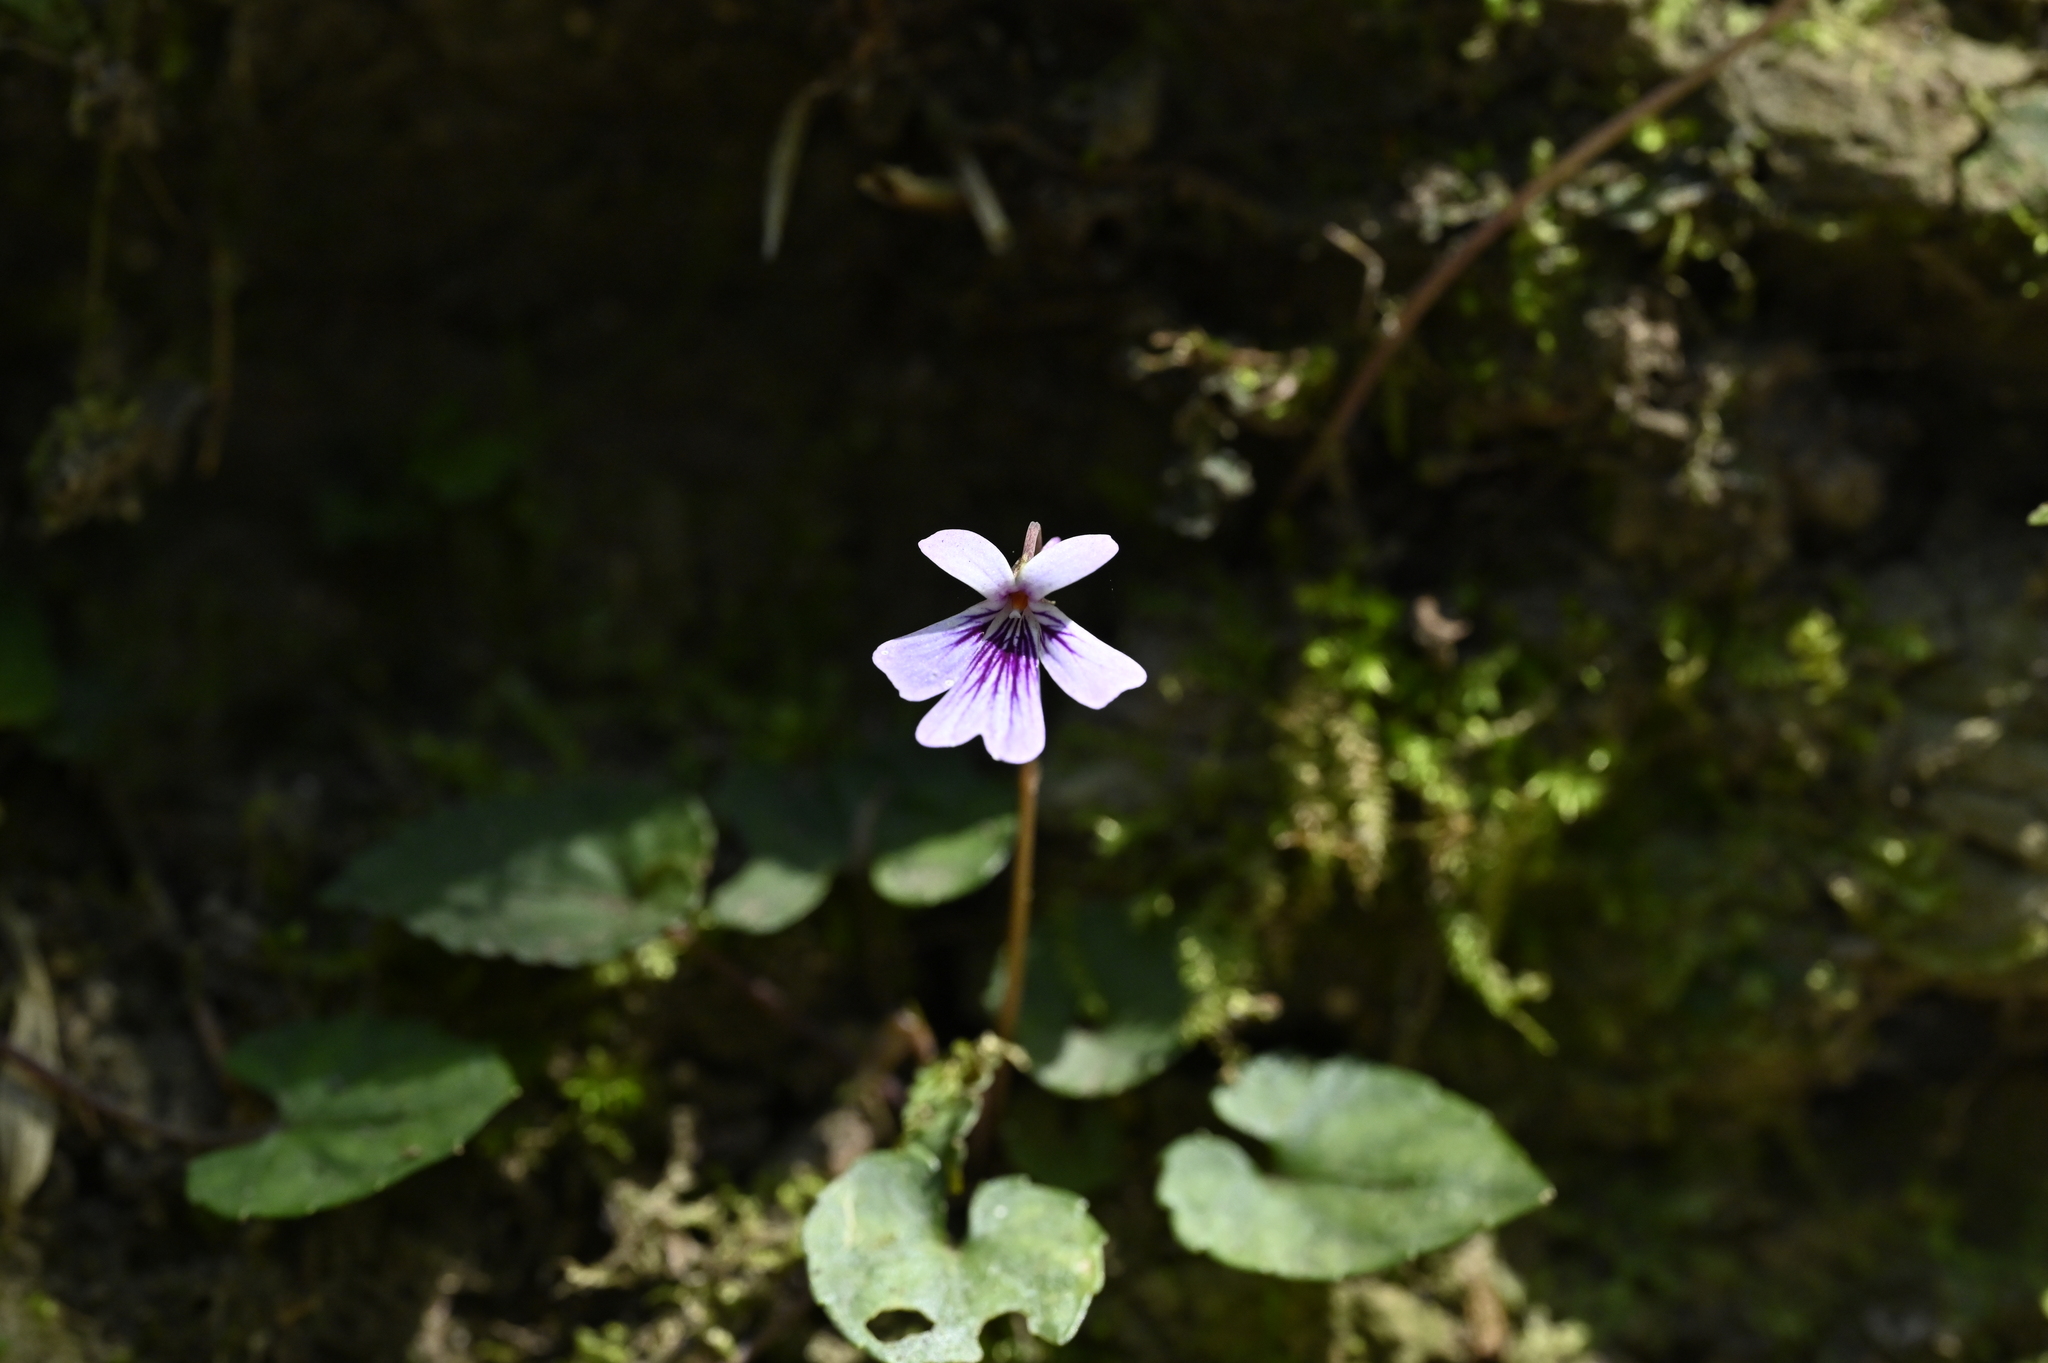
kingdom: Plantae
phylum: Tracheophyta
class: Magnoliopsida
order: Malpighiales
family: Violaceae
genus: Viola
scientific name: Viola formosana
